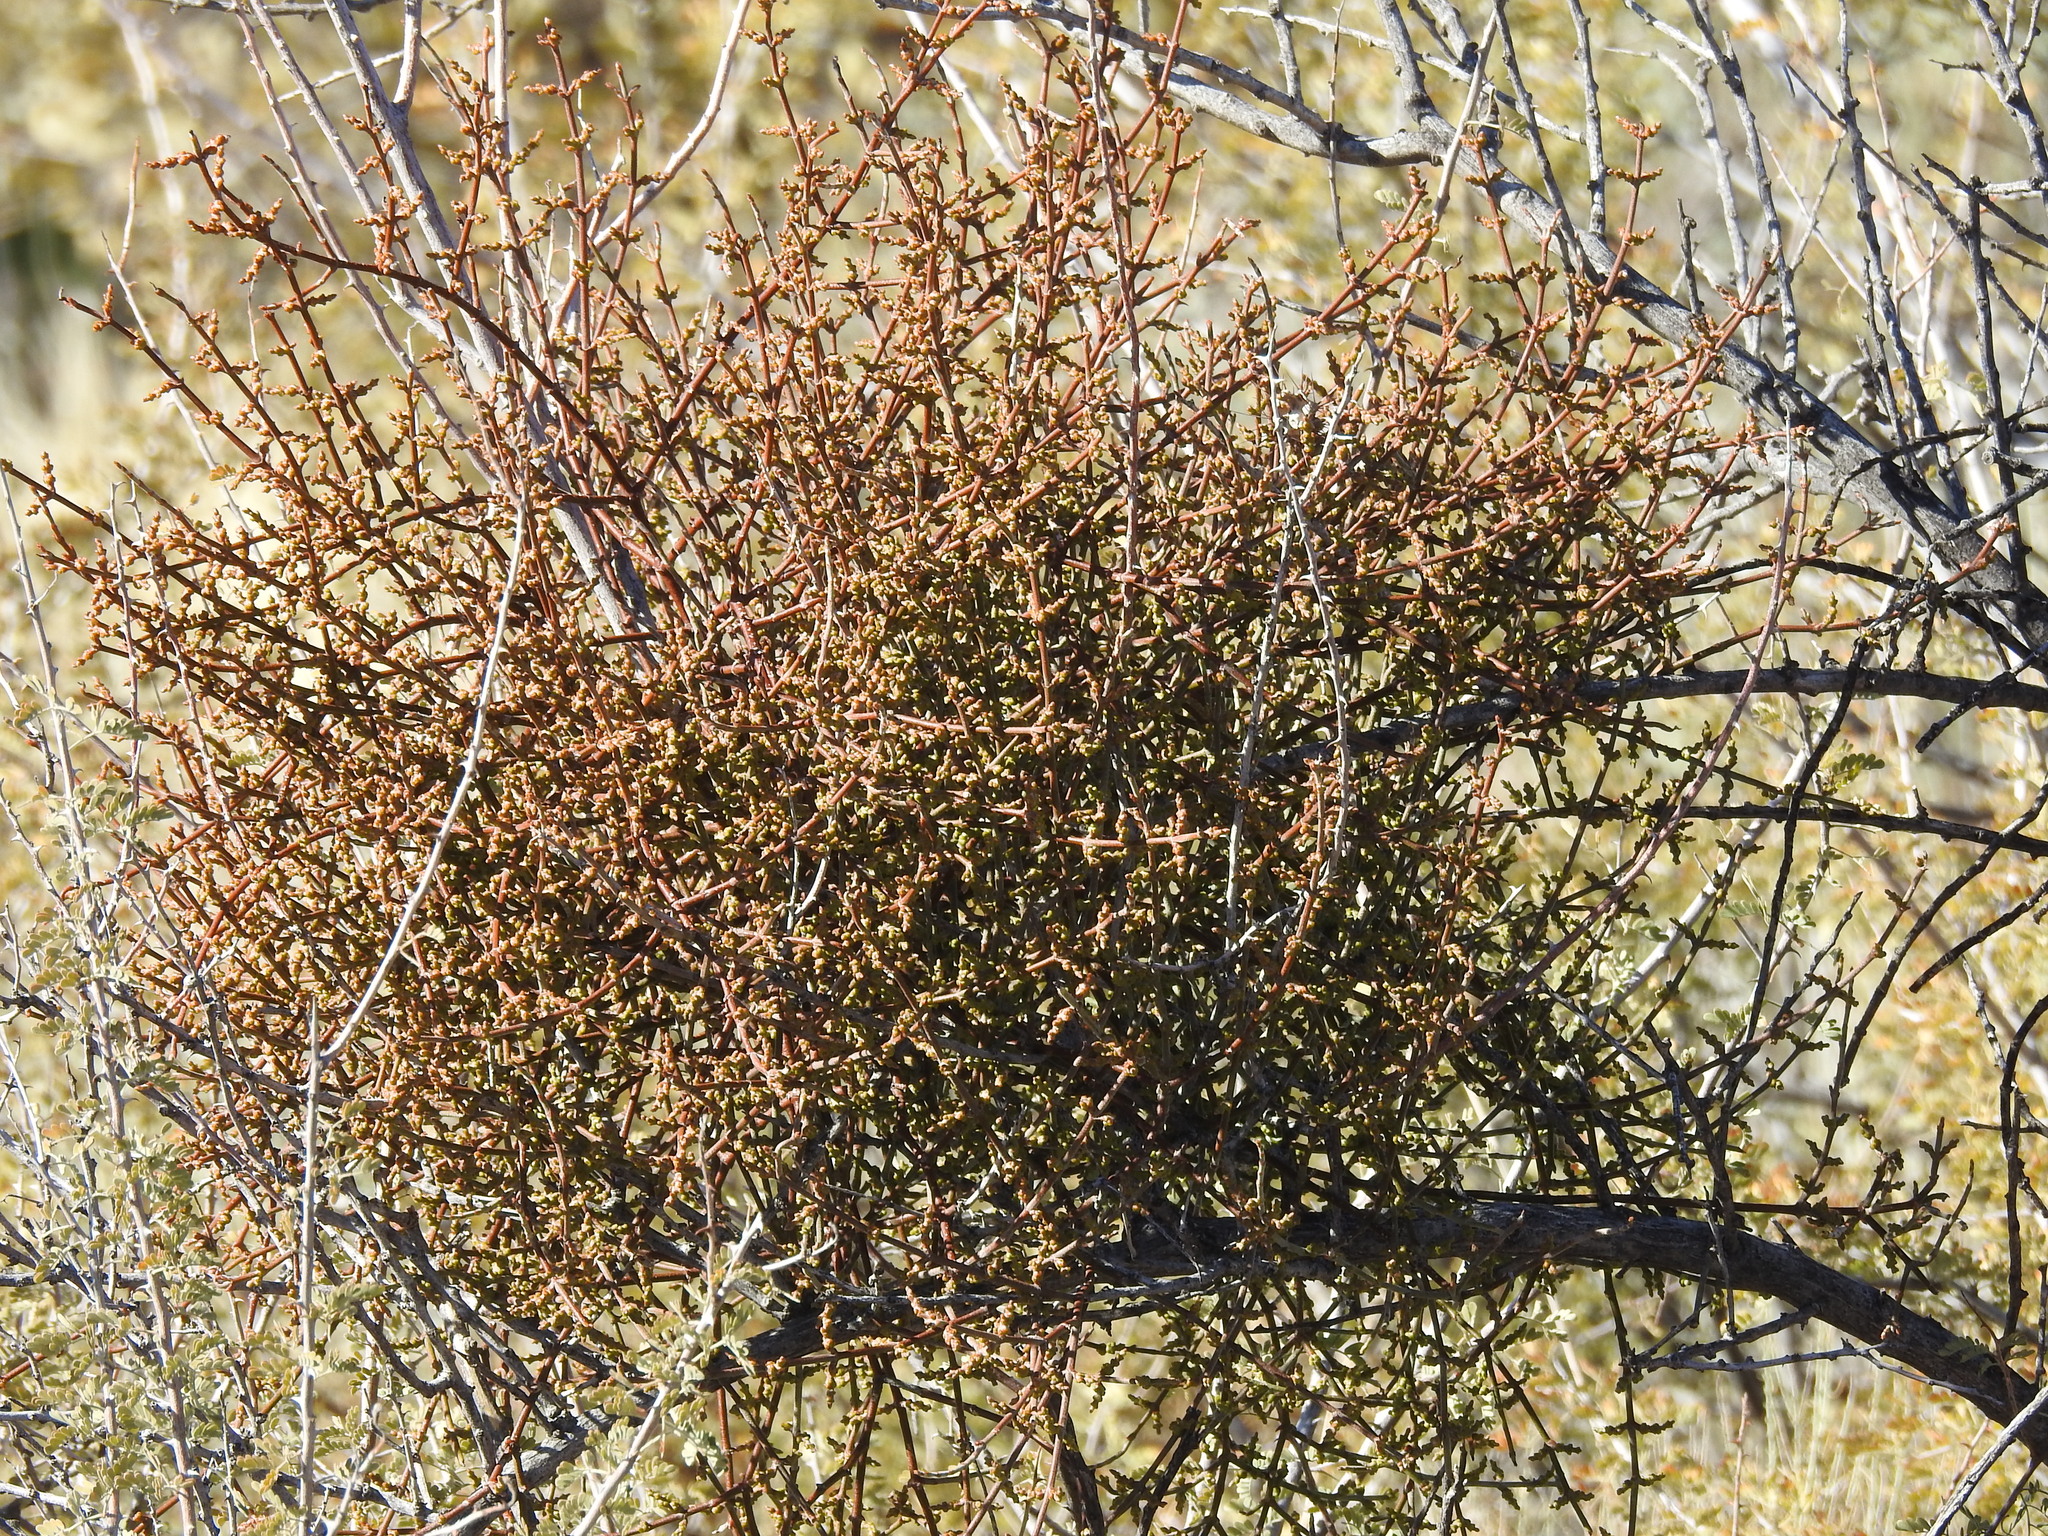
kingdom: Plantae
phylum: Tracheophyta
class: Magnoliopsida
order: Santalales
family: Viscaceae
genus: Phoradendron
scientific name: Phoradendron californicum
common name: Acacia mistletoe
